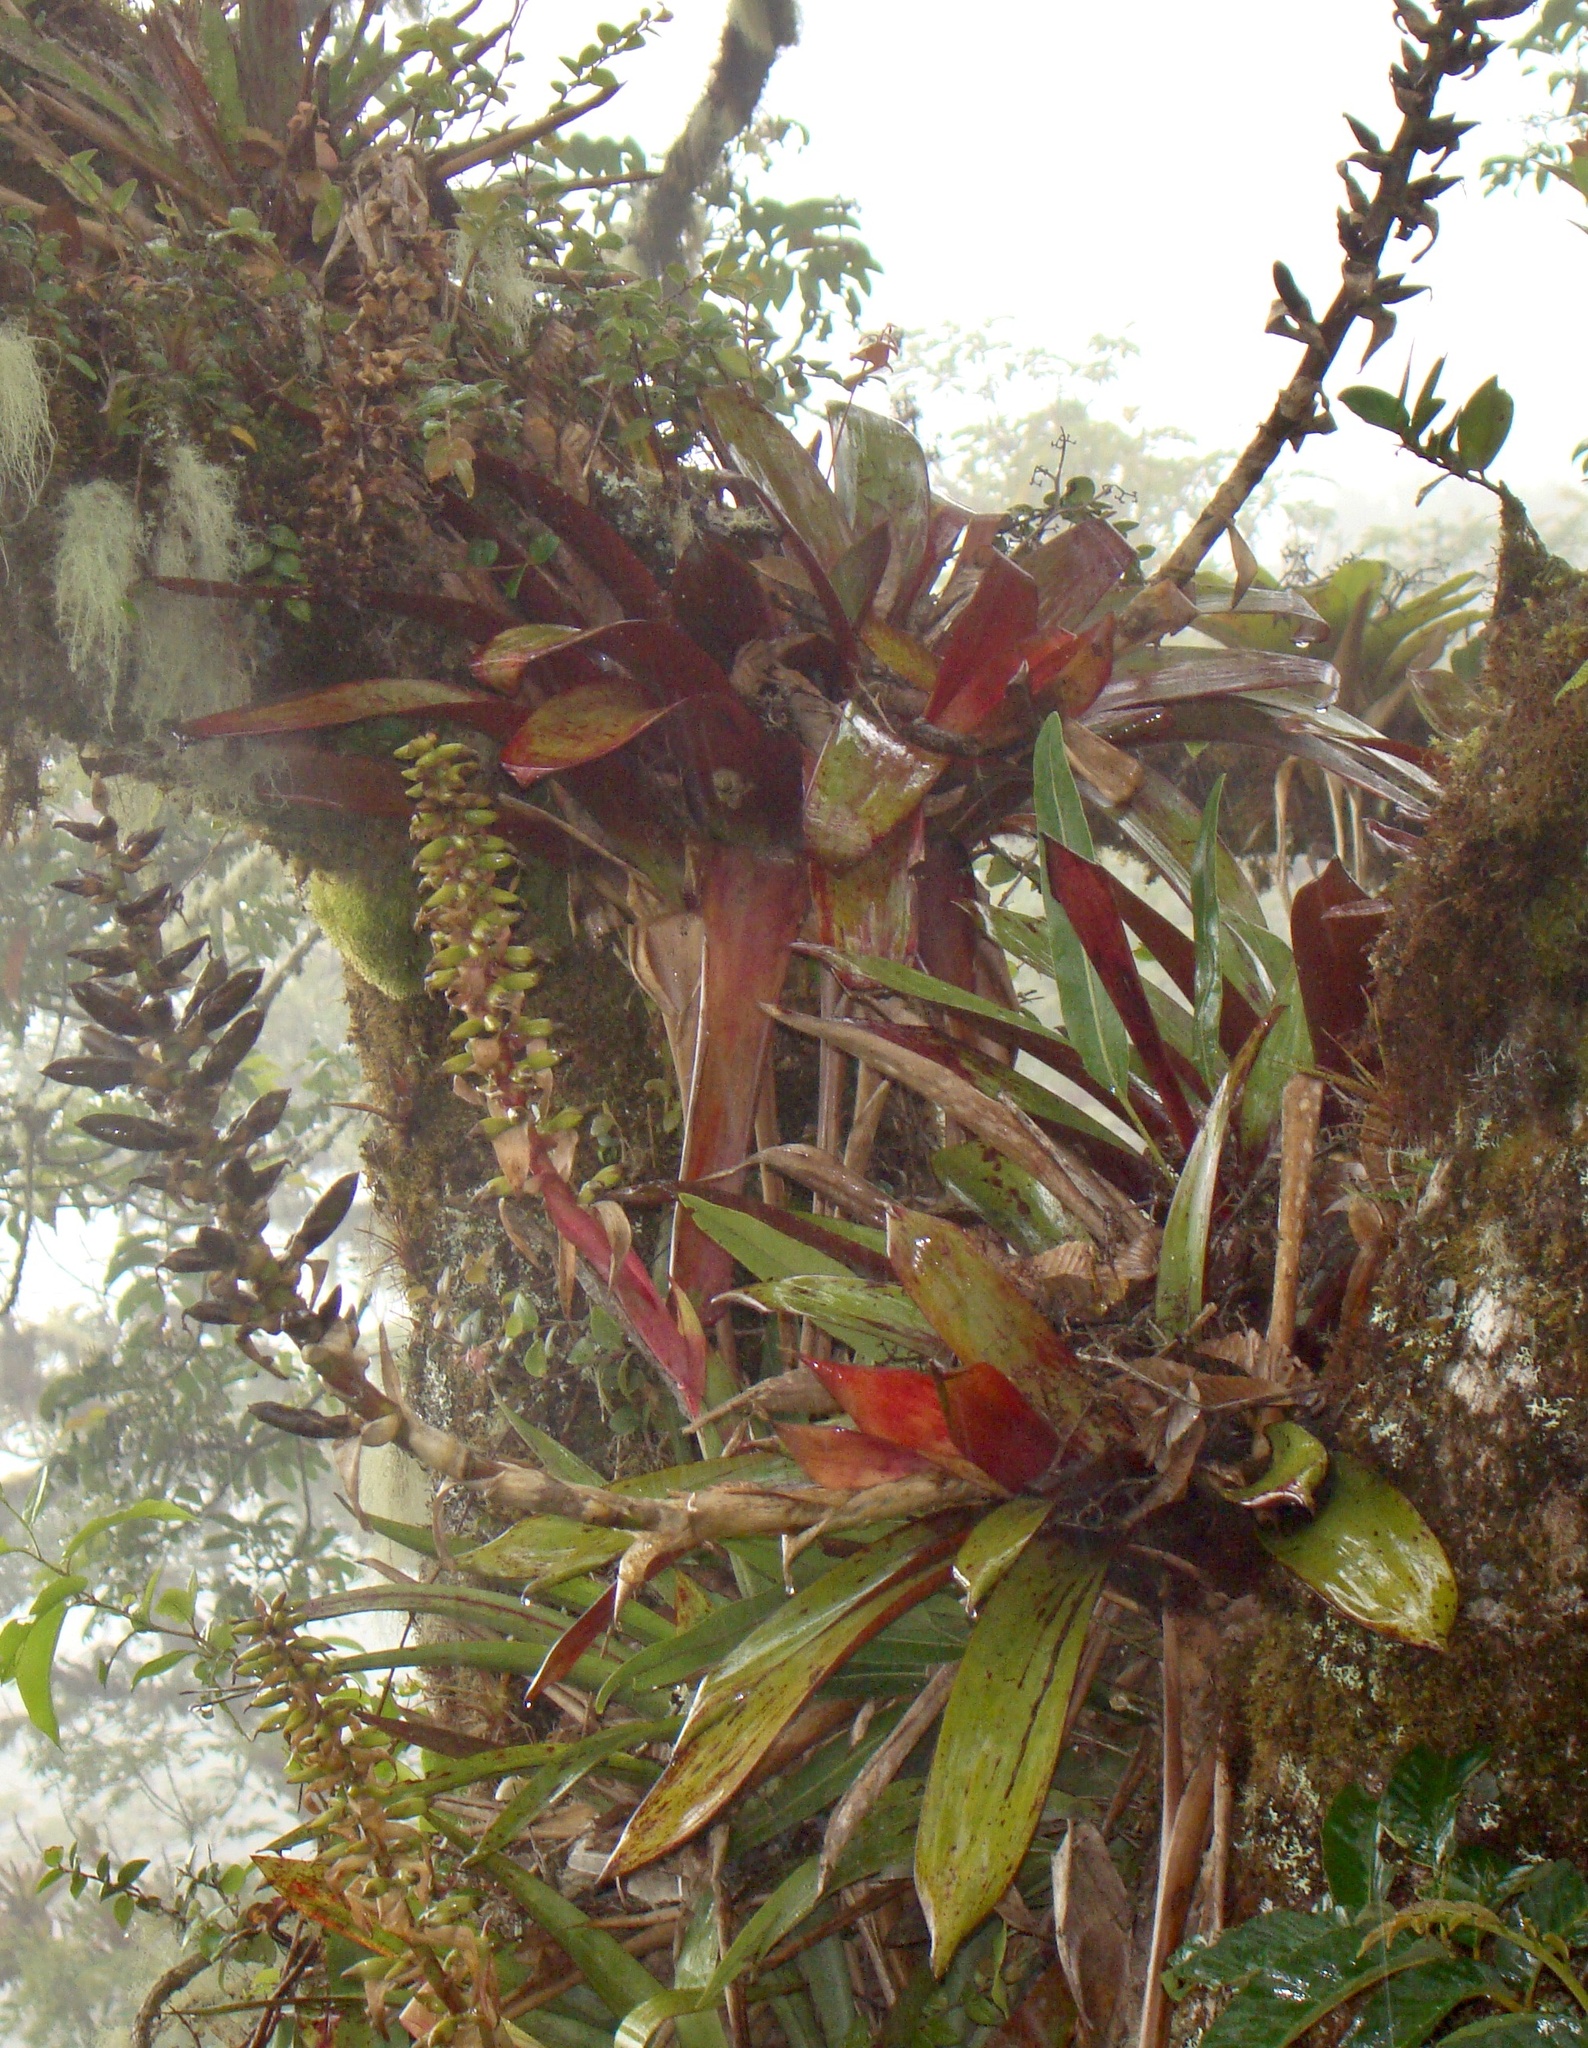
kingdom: Plantae
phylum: Tracheophyta
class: Liliopsida
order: Poales
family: Bromeliaceae
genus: Werauhia
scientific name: Werauhia ororiensis
